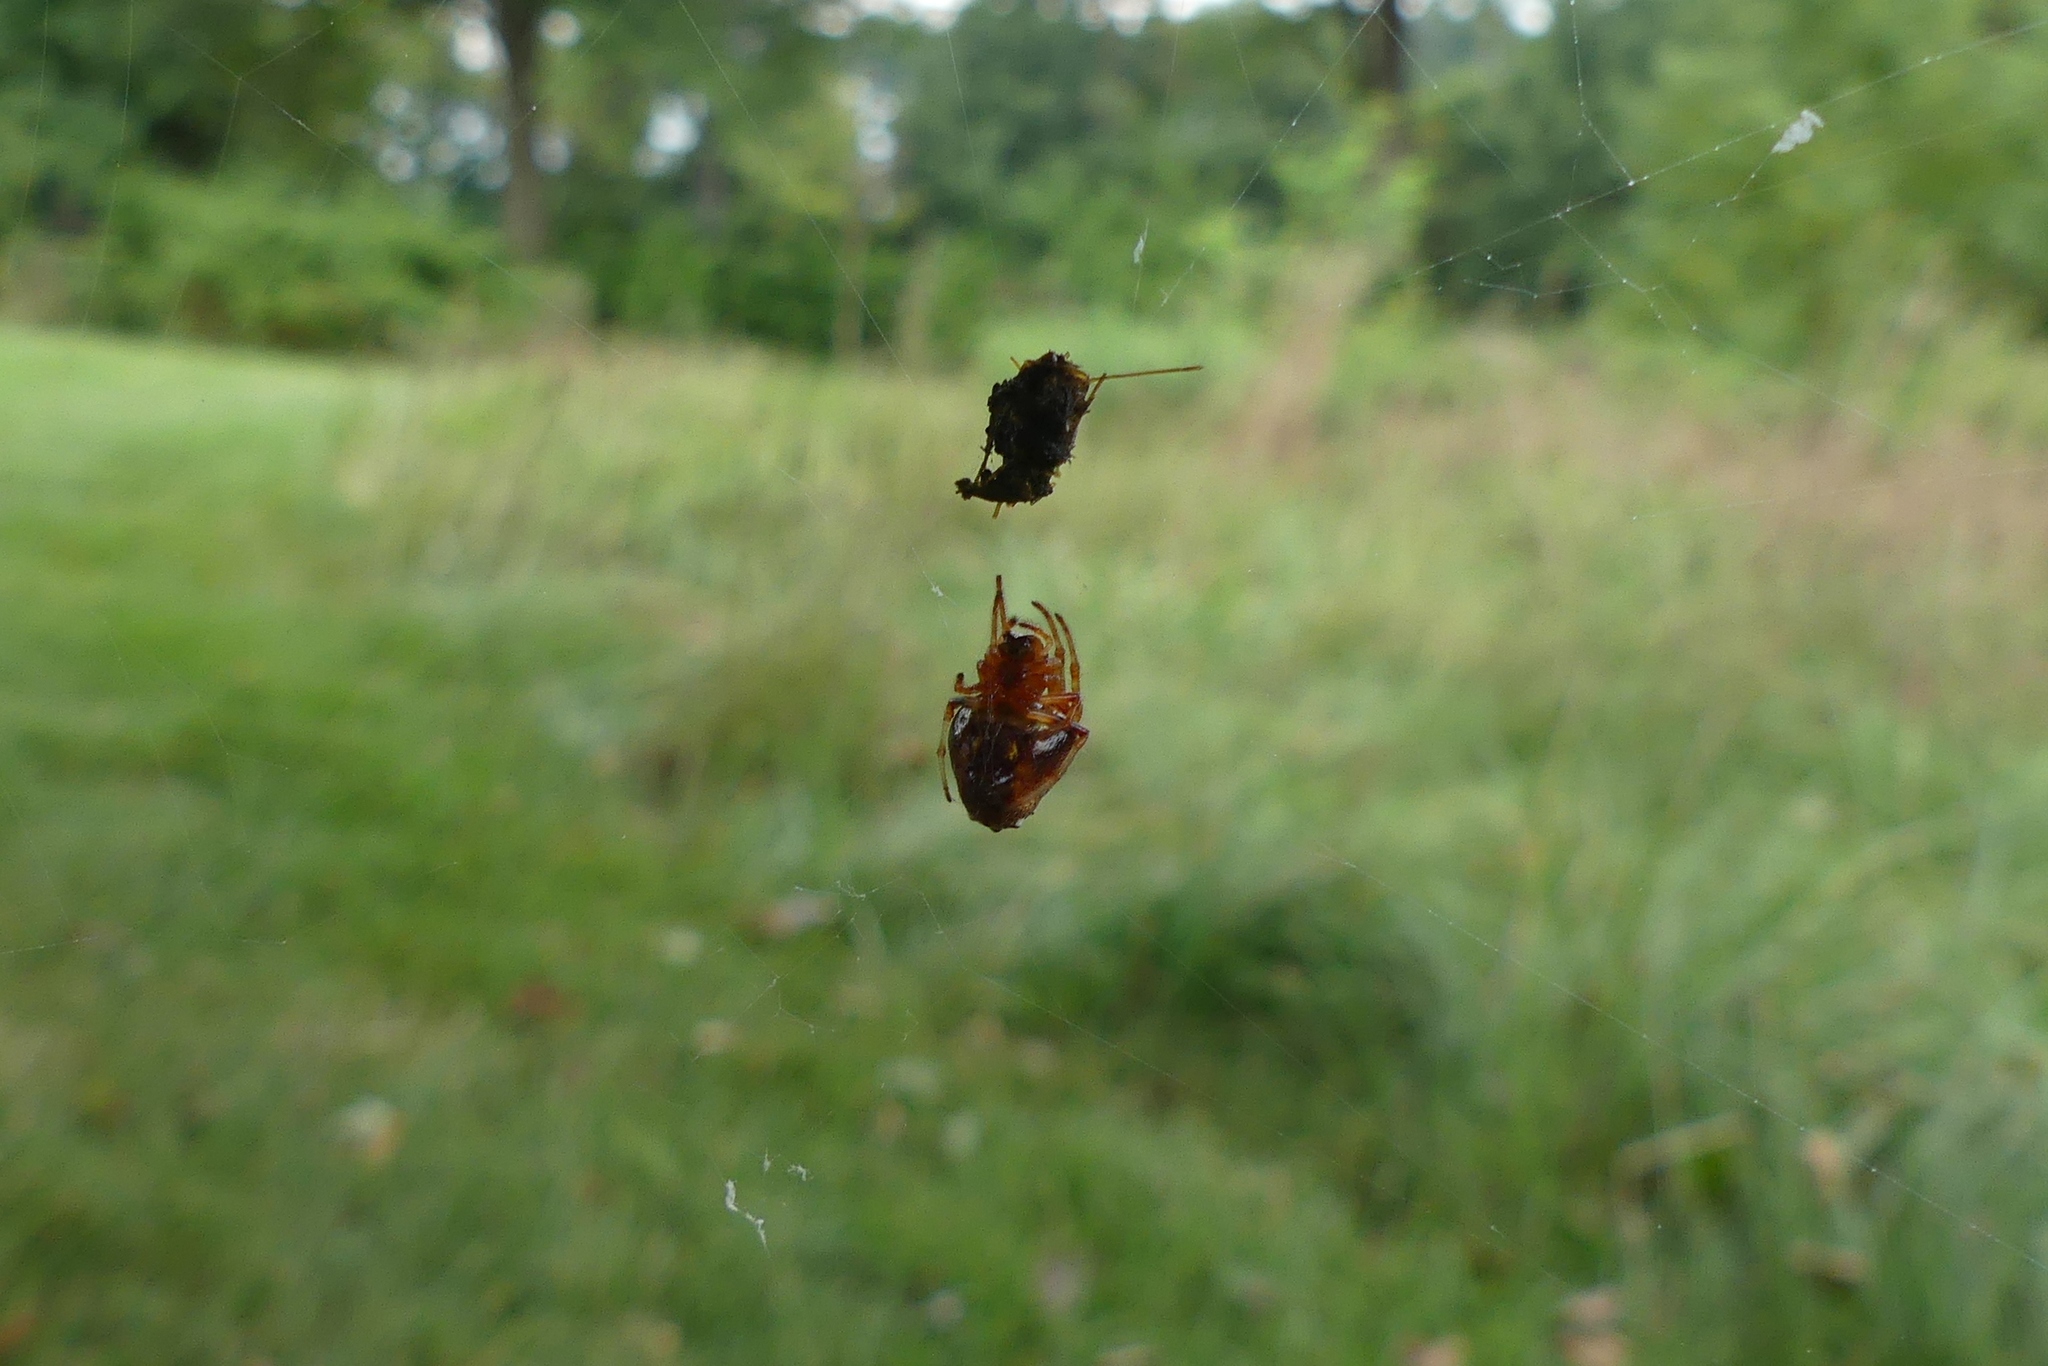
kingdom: Animalia
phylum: Arthropoda
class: Arachnida
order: Araneae
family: Araneidae
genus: Verrucosa
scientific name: Verrucosa arenata
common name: Orb weavers
